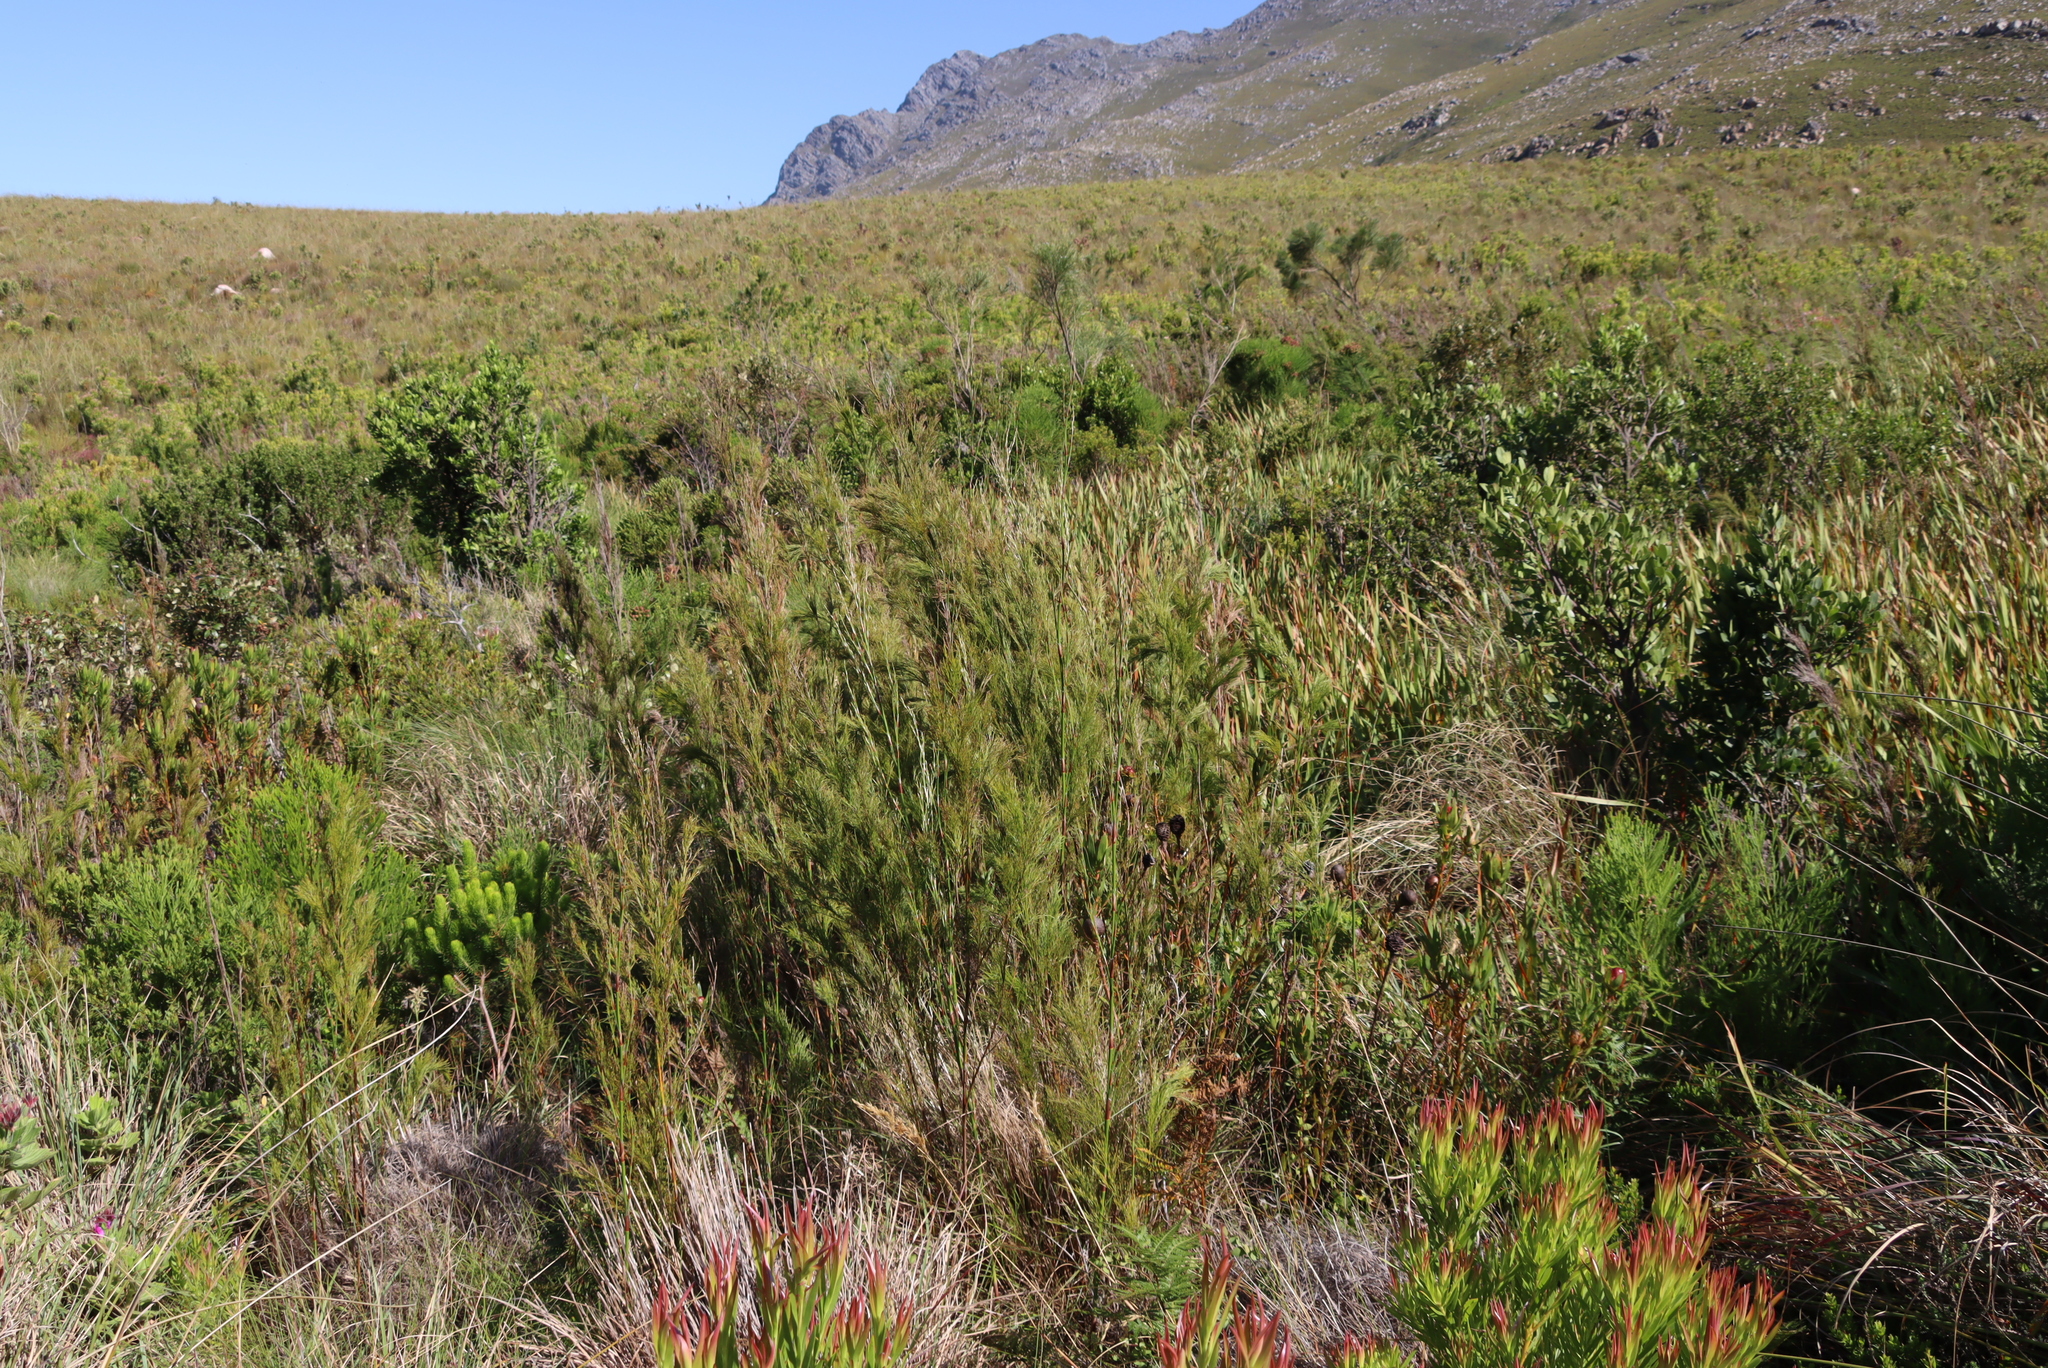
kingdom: Plantae
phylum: Tracheophyta
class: Liliopsida
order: Poales
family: Restionaceae
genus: Restio
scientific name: Restio paniculatus
